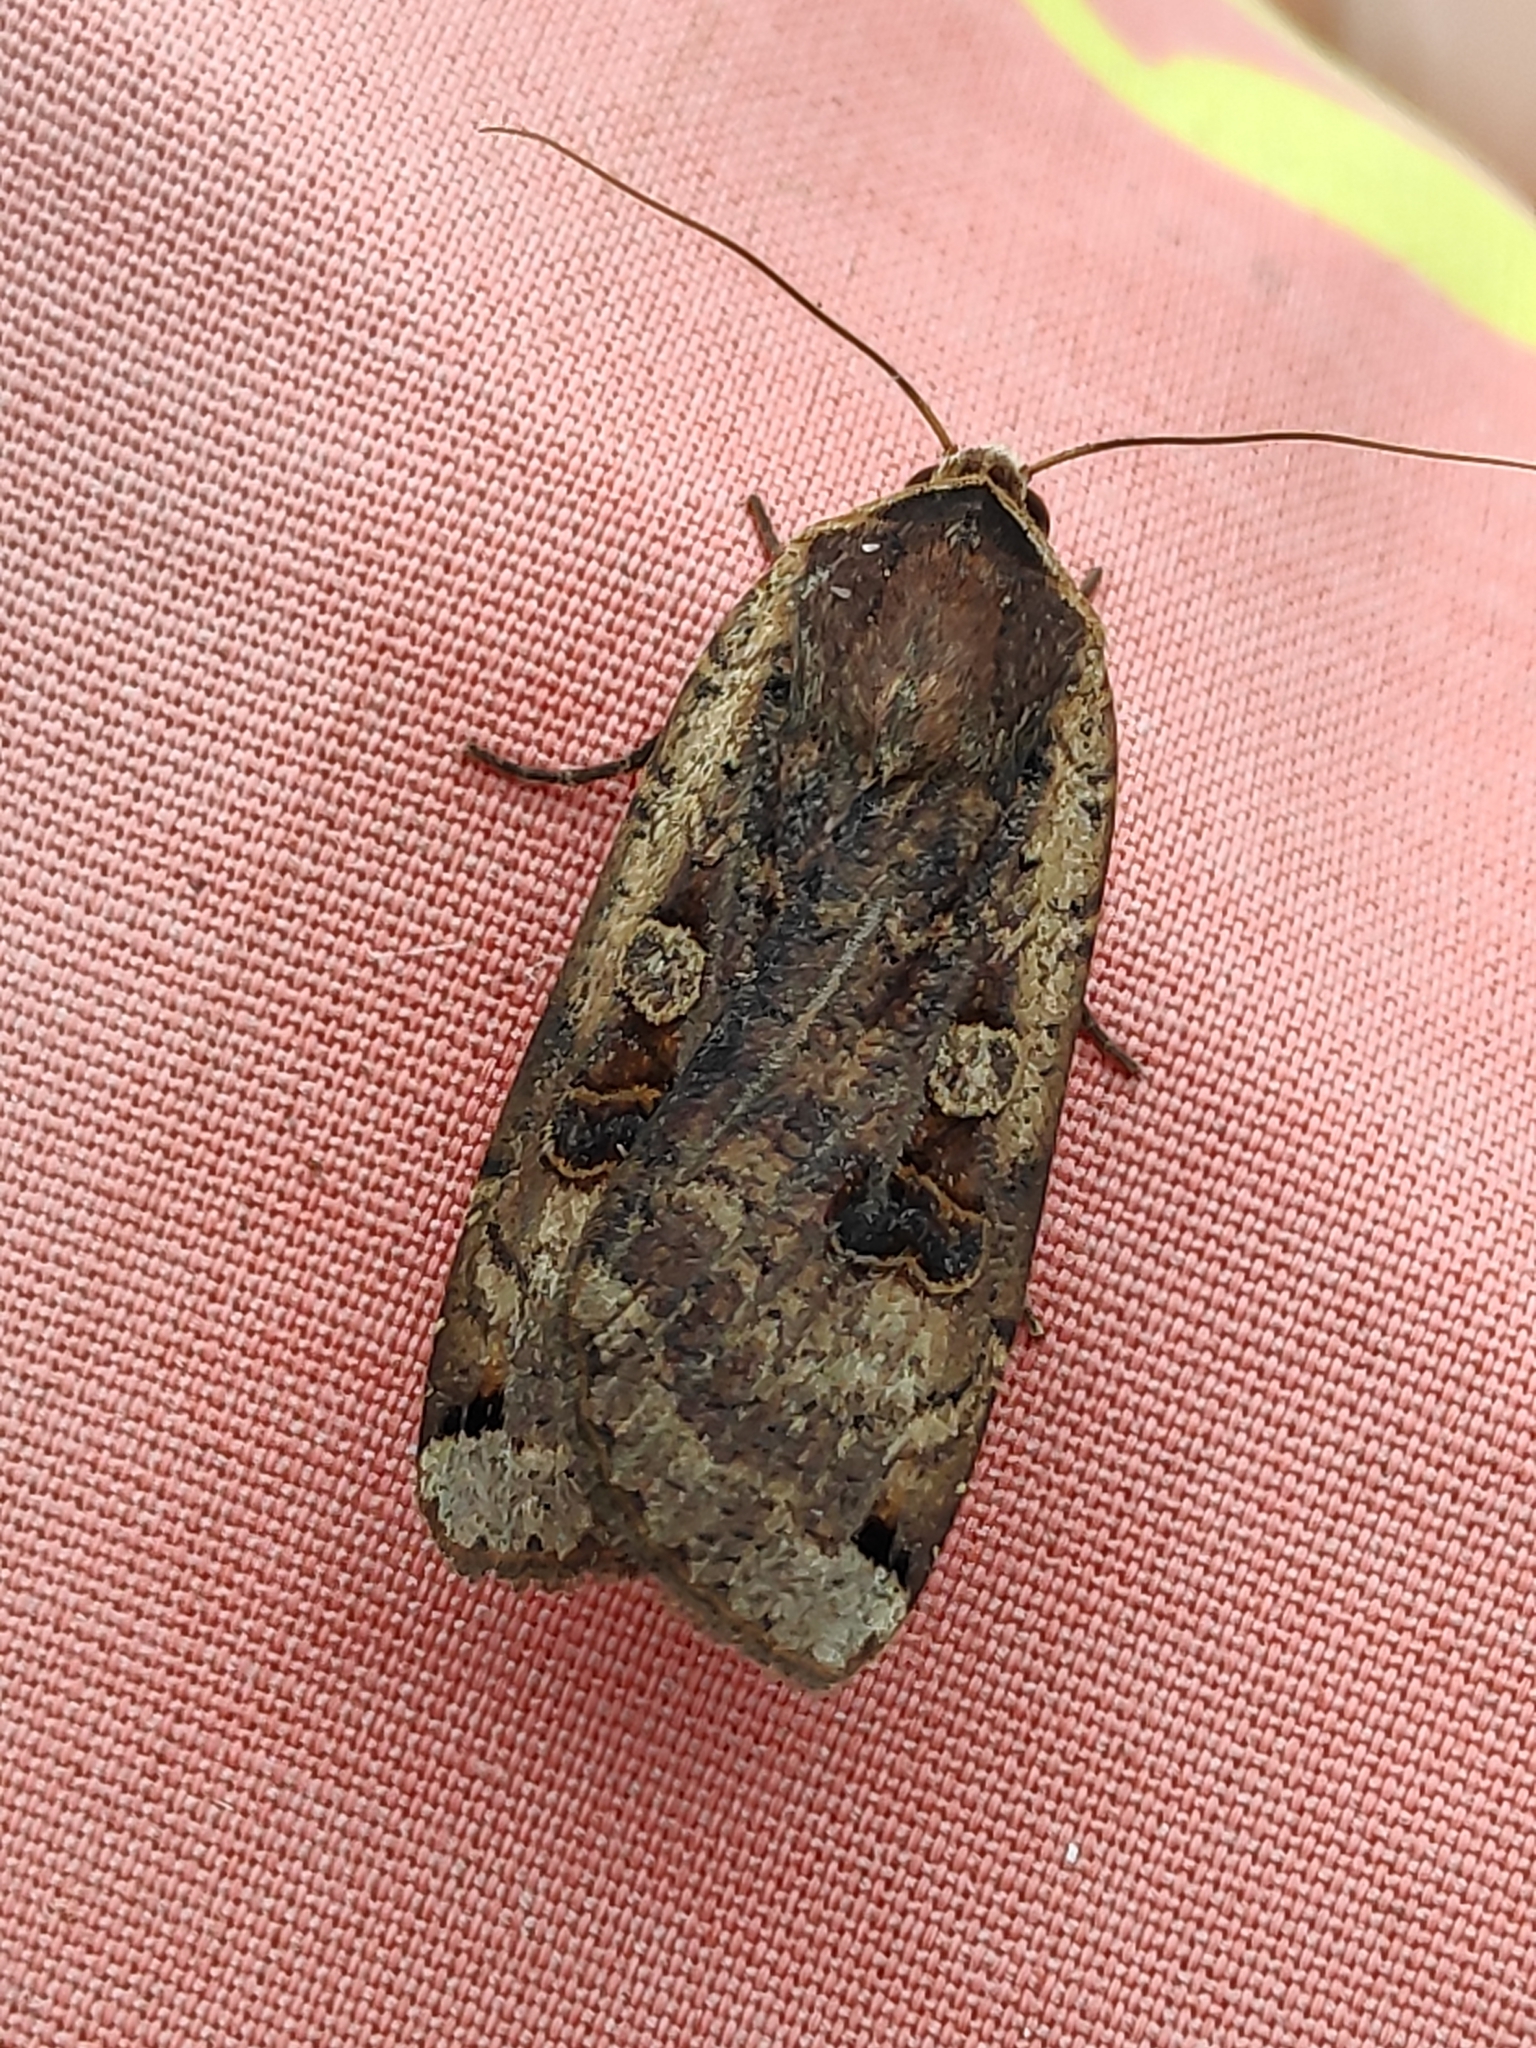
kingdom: Animalia
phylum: Arthropoda
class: Insecta
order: Lepidoptera
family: Noctuidae
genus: Noctua
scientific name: Noctua pronuba
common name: Large yellow underwing
